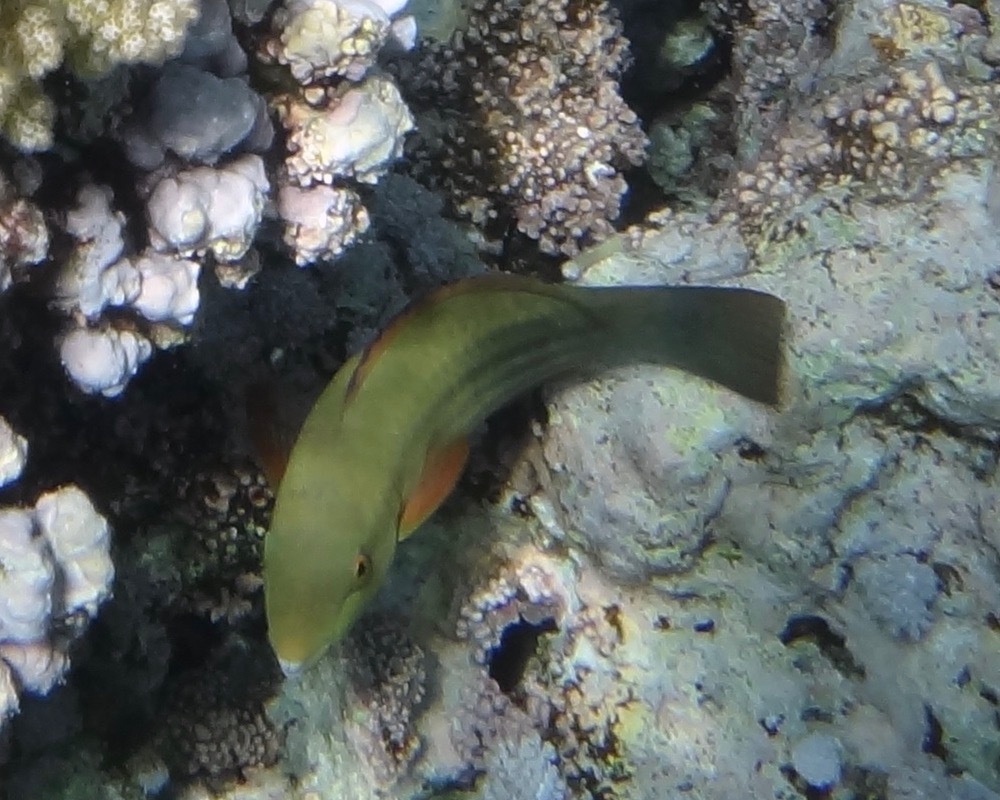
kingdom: Animalia
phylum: Chordata
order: Perciformes
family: Scaridae
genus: Scarus
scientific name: Scarus frenatus
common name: Bridled parrotfish
